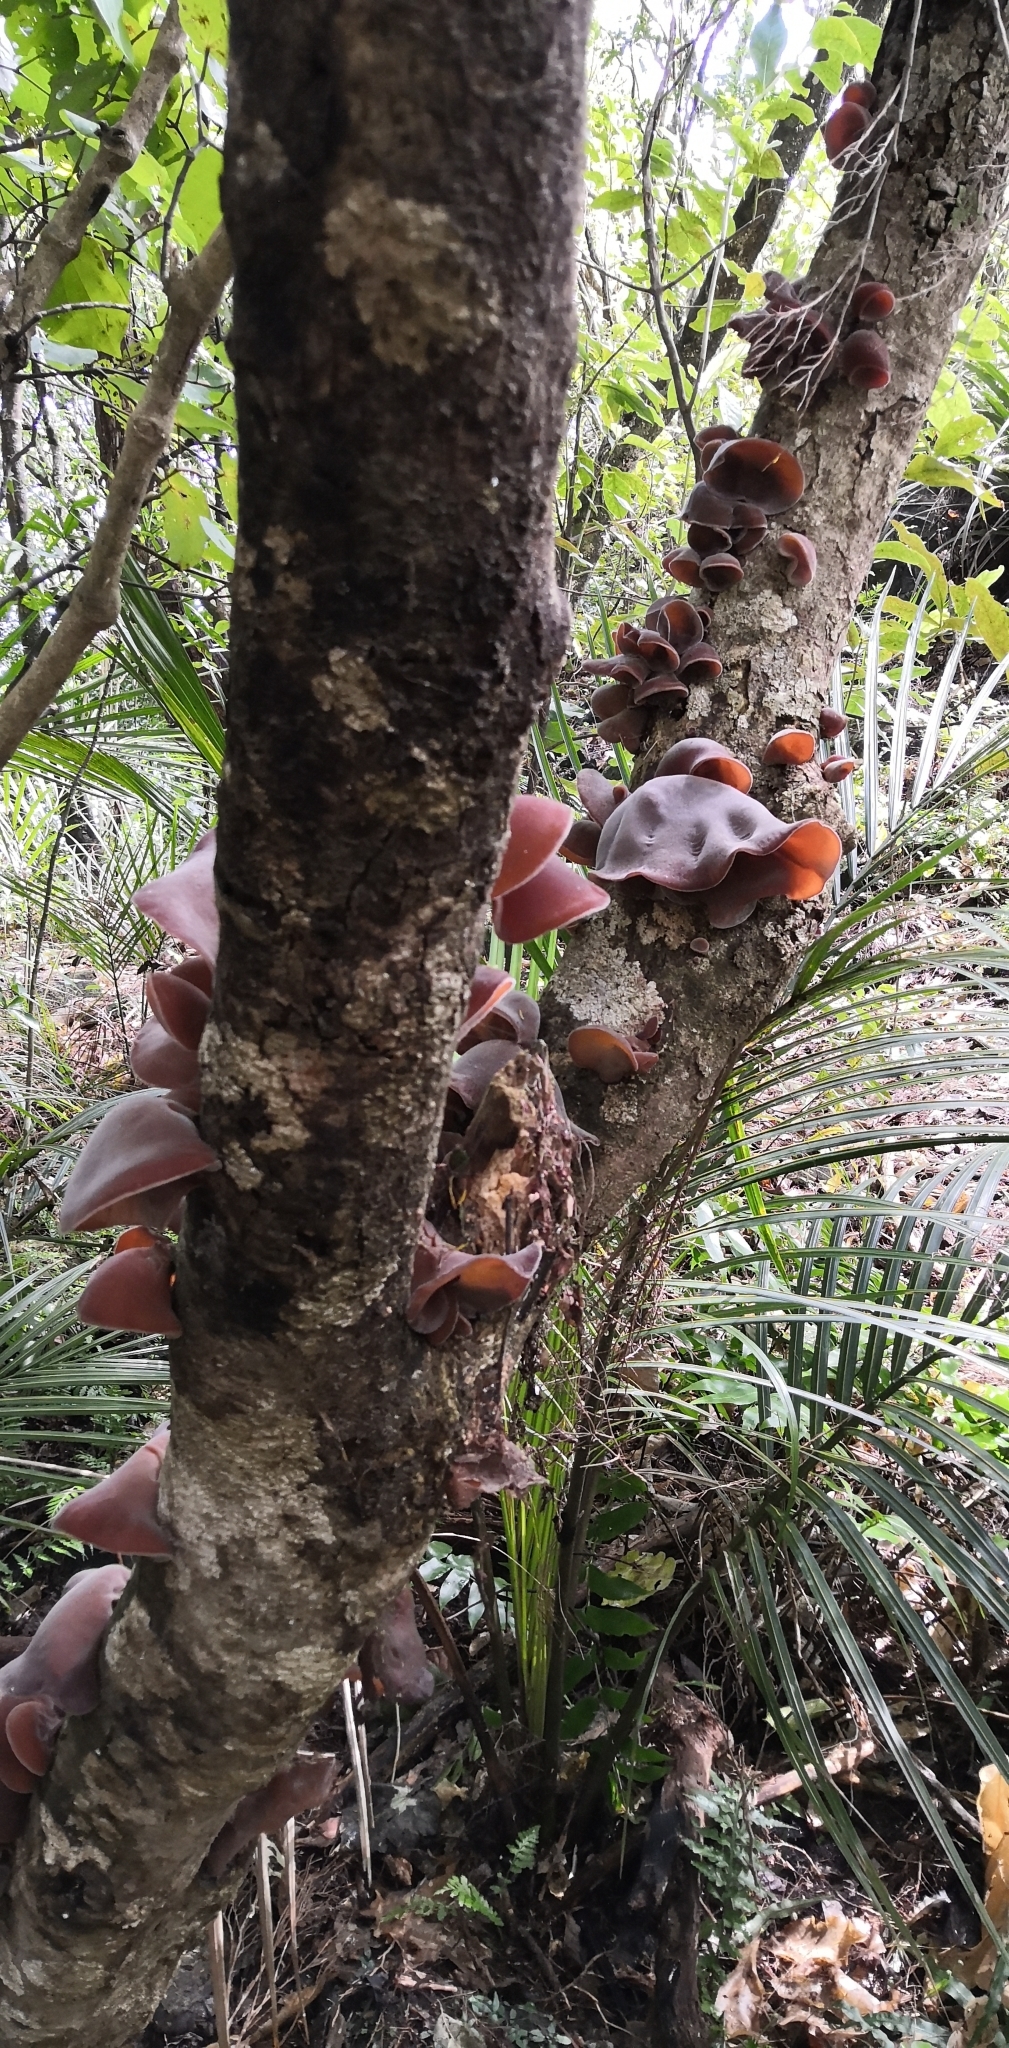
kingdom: Fungi
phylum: Basidiomycota
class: Agaricomycetes
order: Auriculariales
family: Auriculariaceae
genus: Auricularia
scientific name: Auricularia cornea
